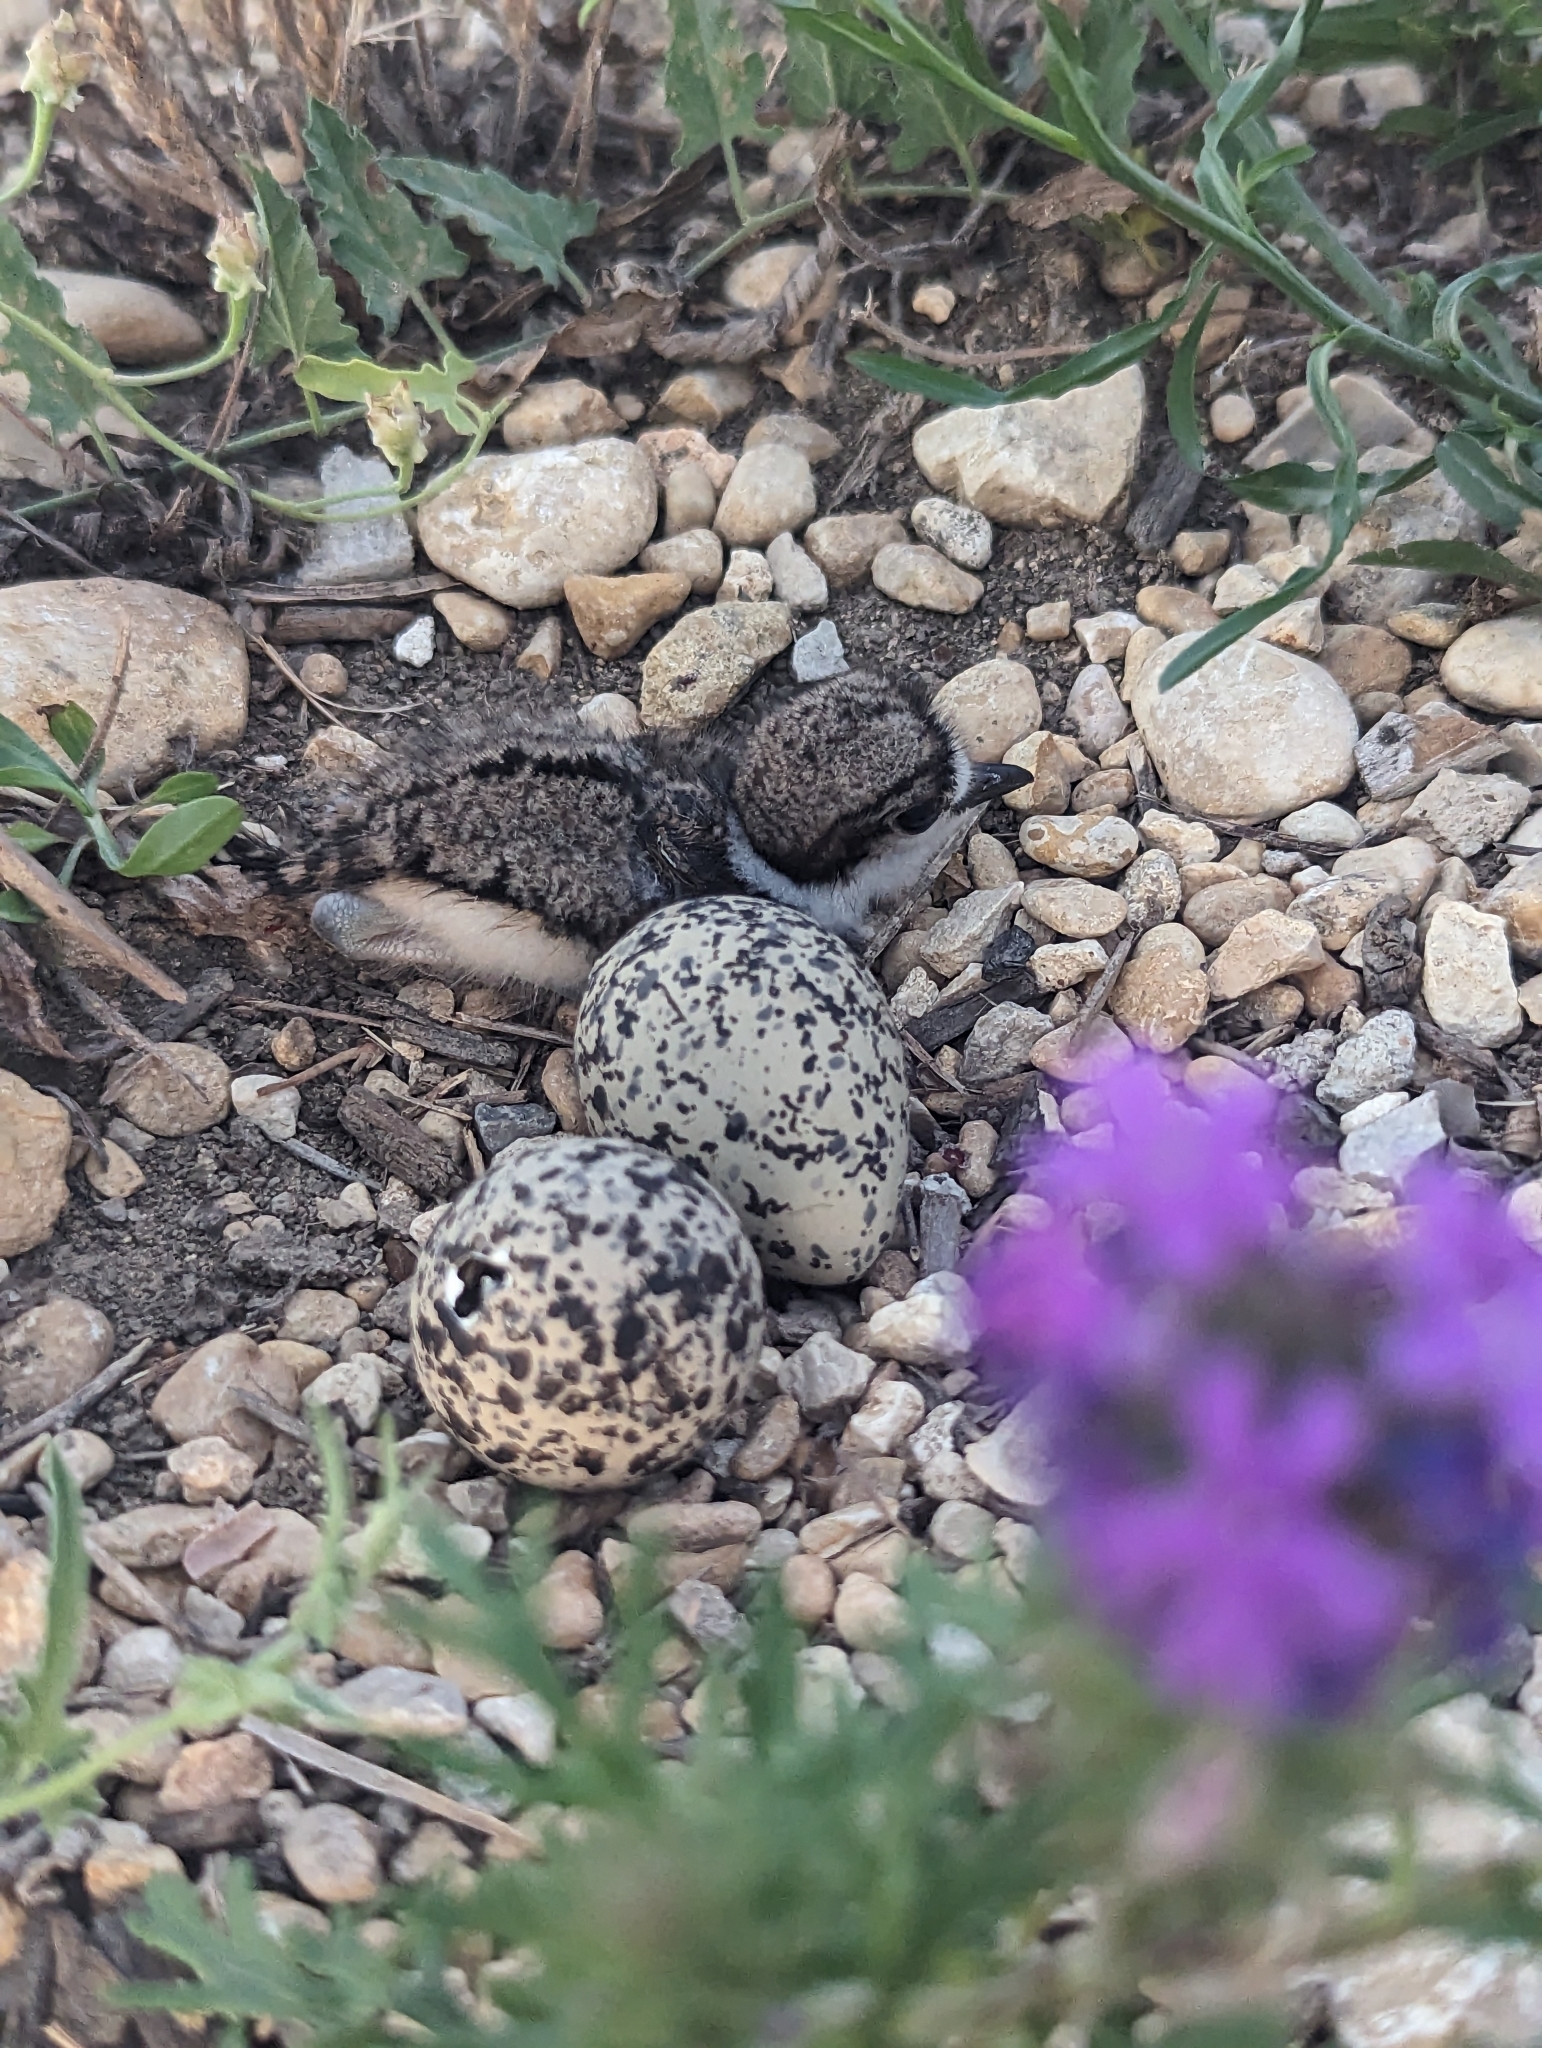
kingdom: Animalia
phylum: Chordata
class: Aves
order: Charadriiformes
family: Charadriidae
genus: Charadrius
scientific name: Charadrius vociferus
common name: Killdeer
